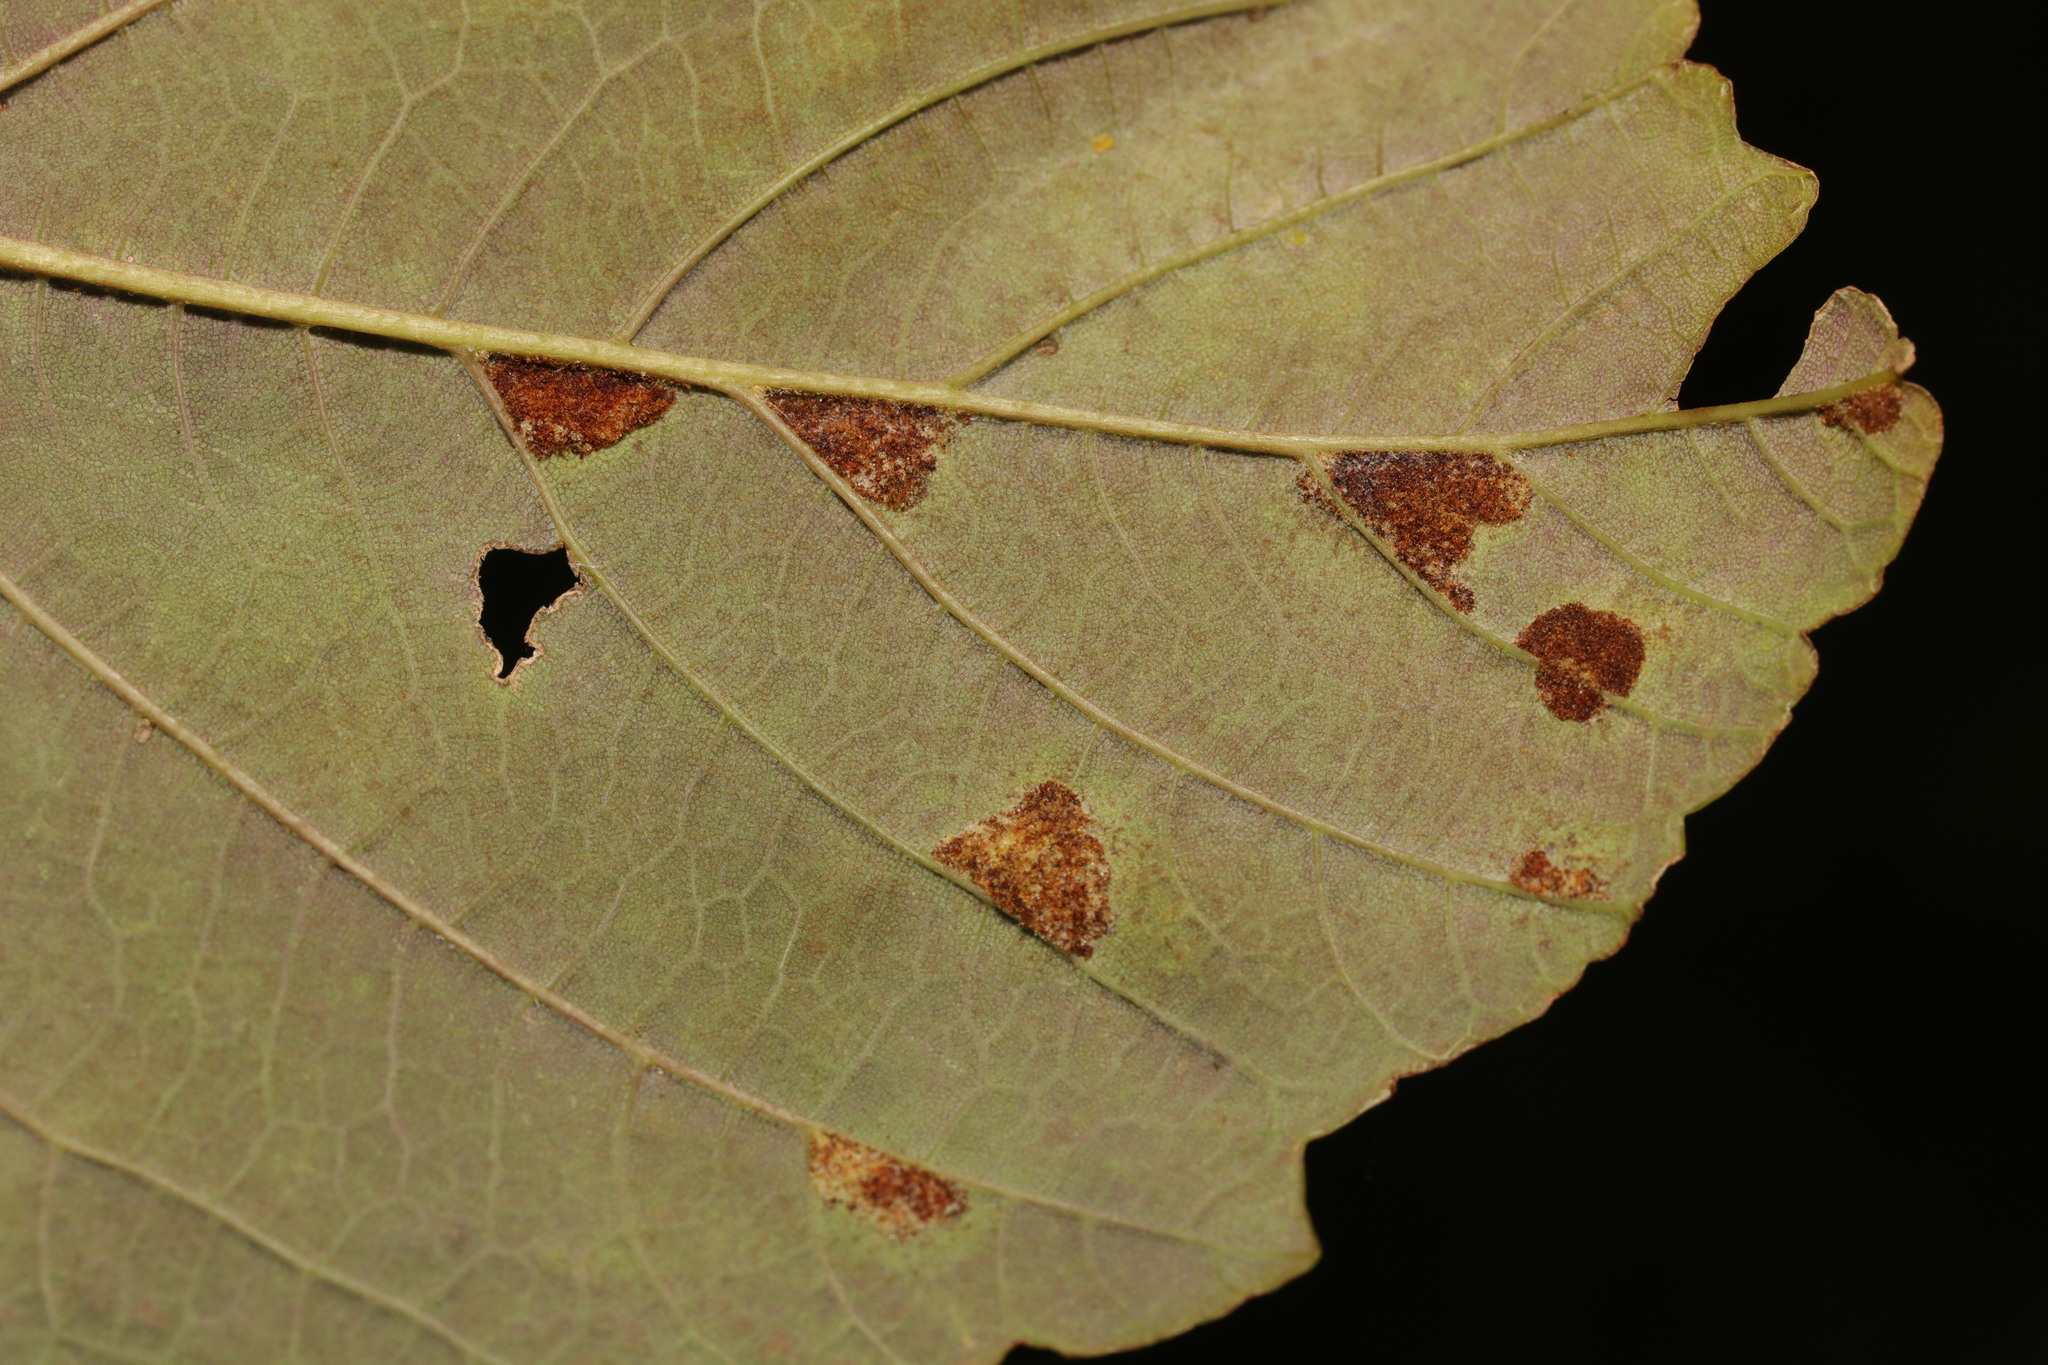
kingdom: Animalia
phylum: Arthropoda
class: Arachnida
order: Trombidiformes
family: Eriophyidae
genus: Aceria
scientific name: Aceria pseudoplatani
